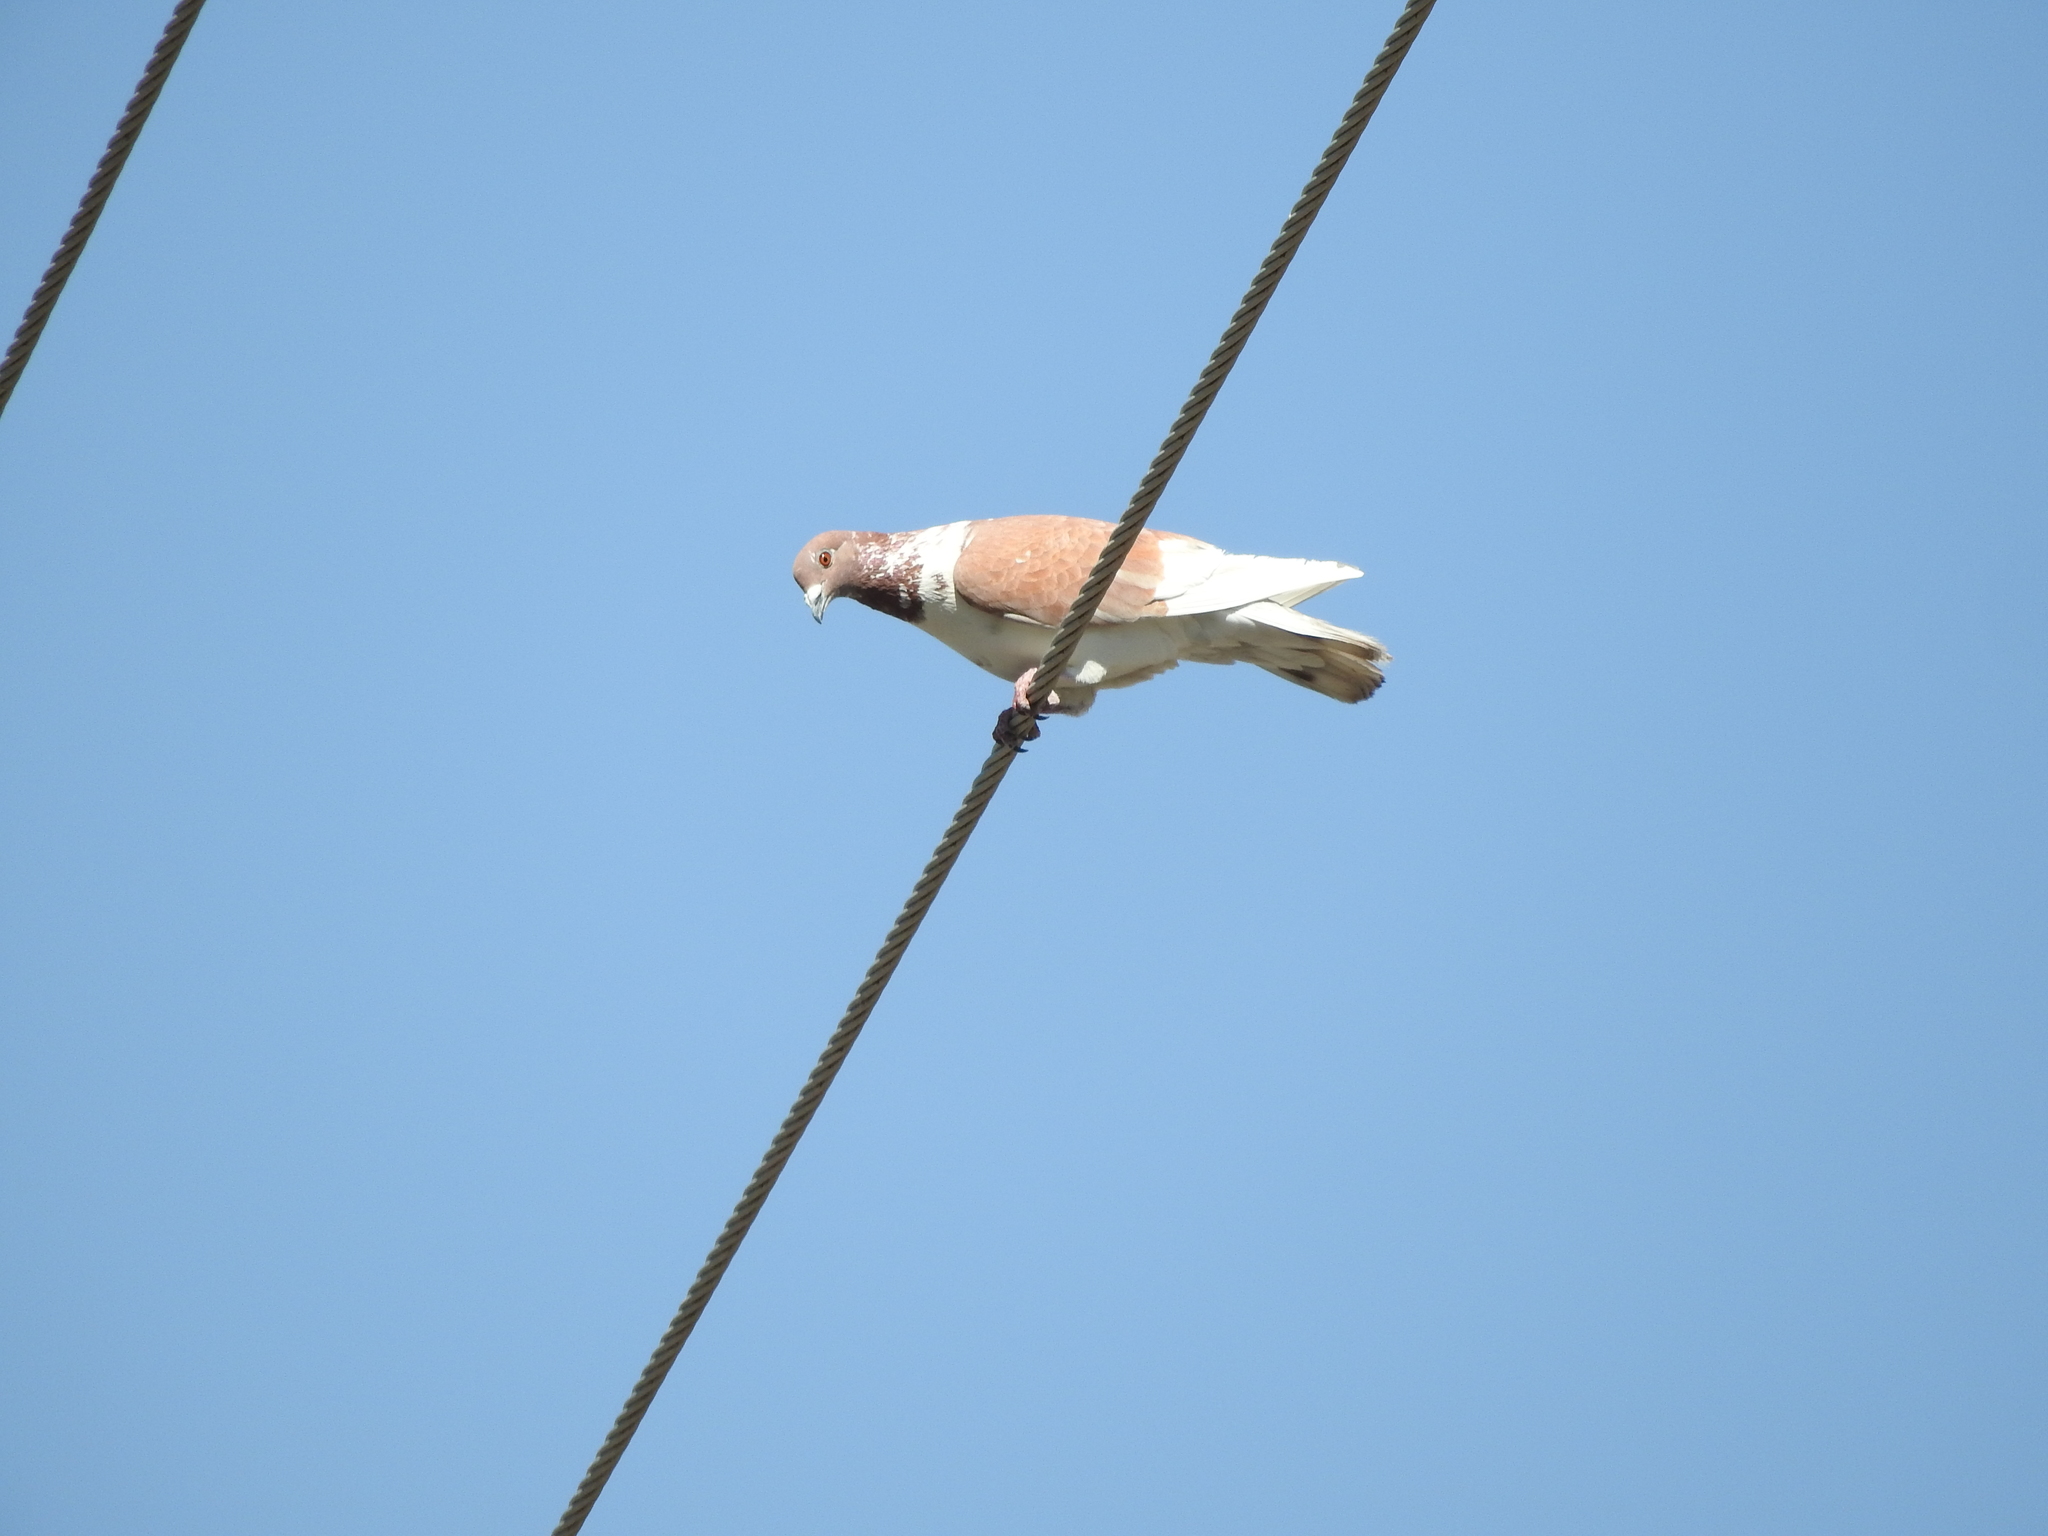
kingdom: Animalia
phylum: Chordata
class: Aves
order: Columbiformes
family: Columbidae
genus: Columba
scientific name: Columba livia
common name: Rock pigeon
